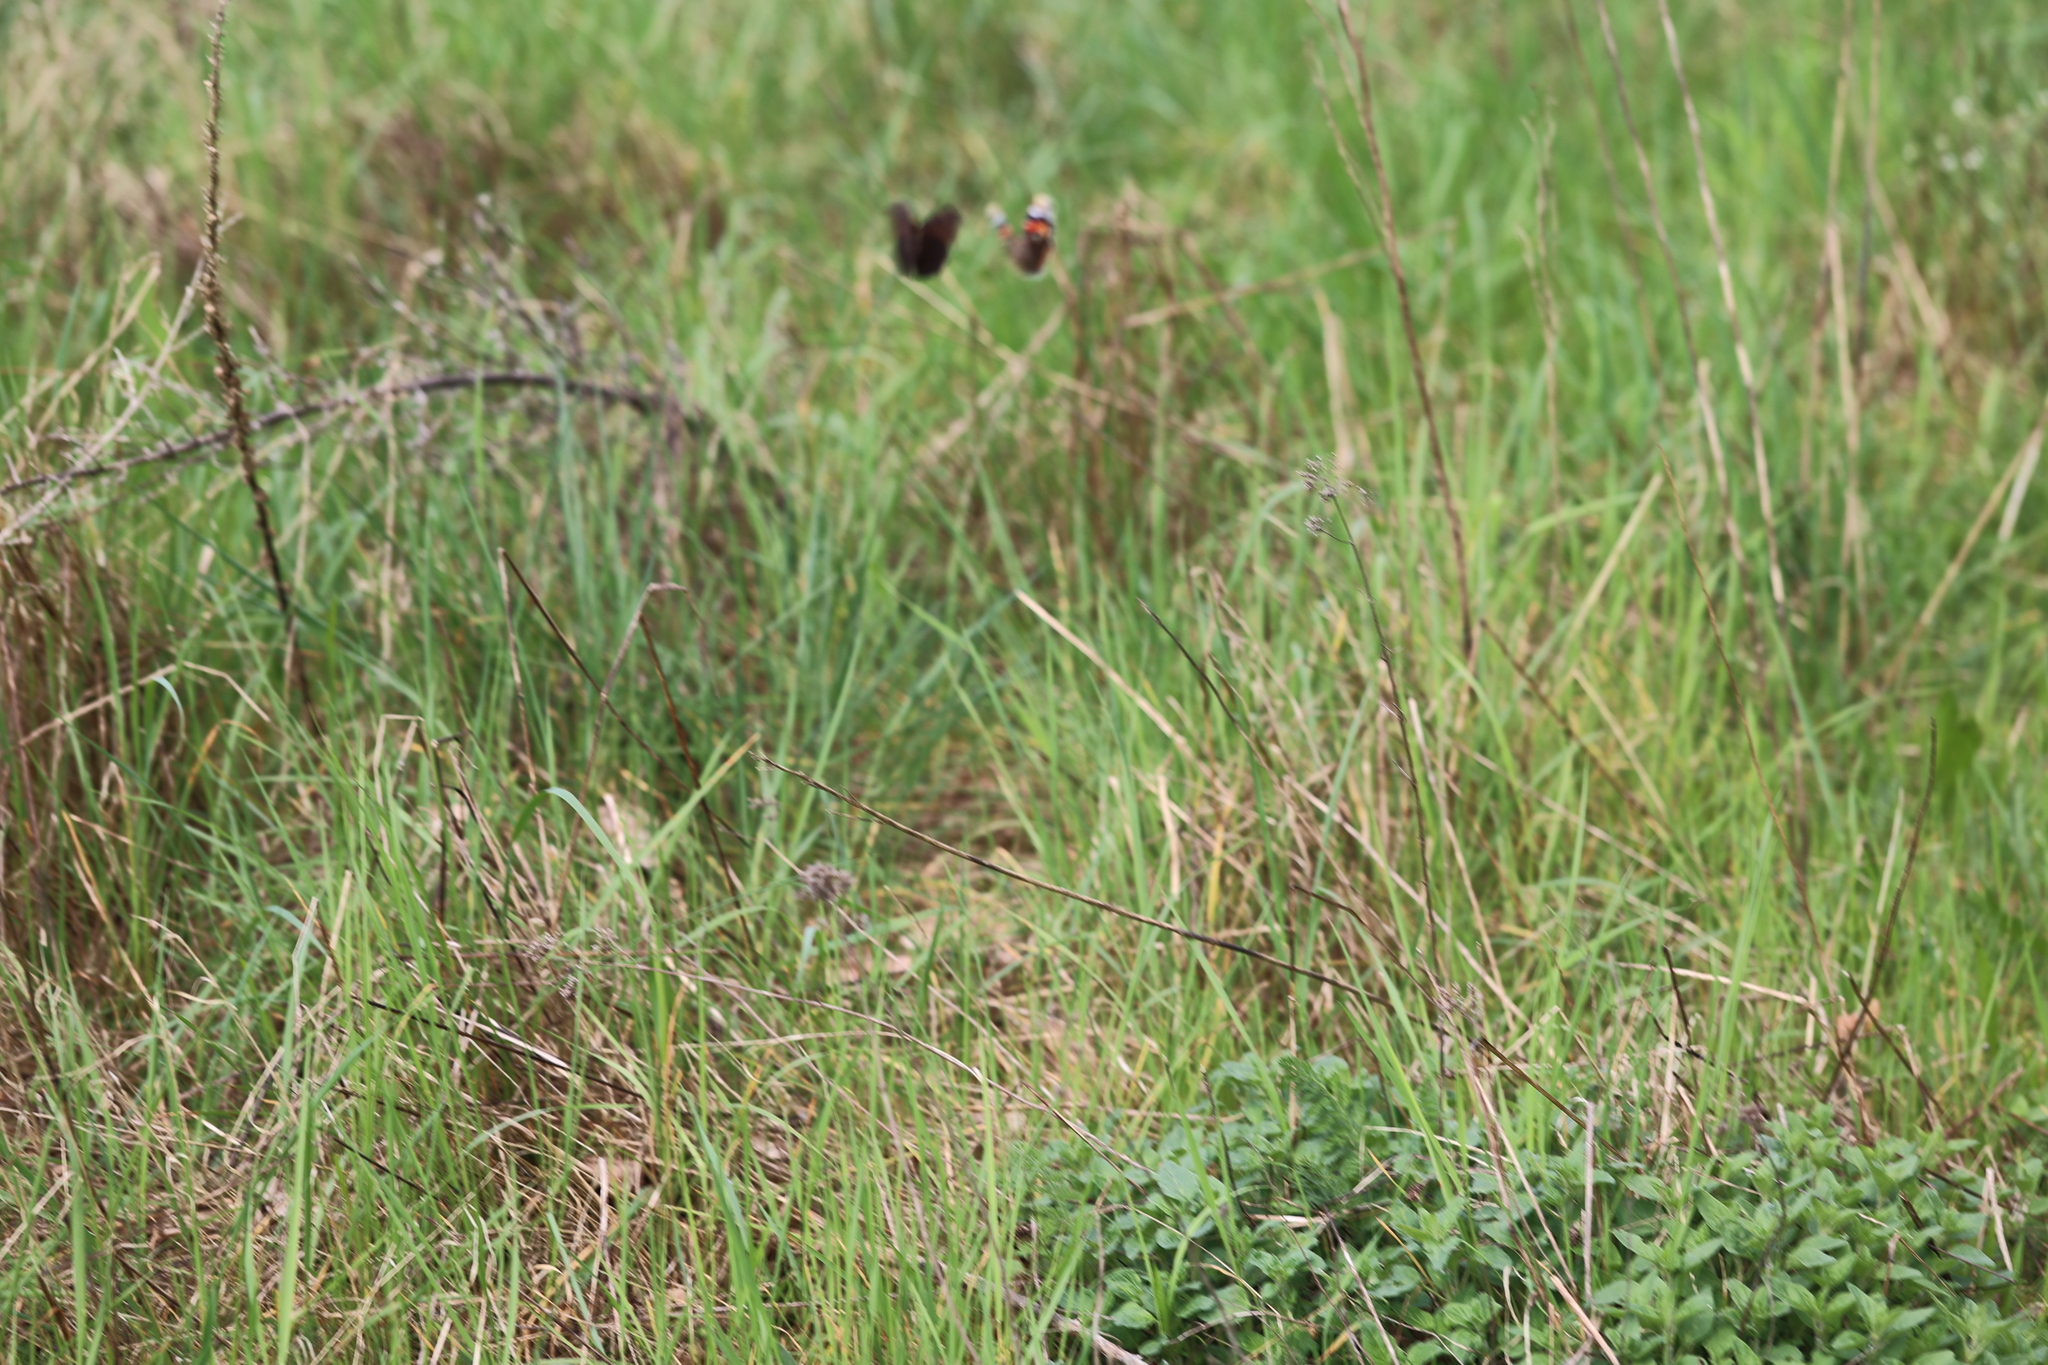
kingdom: Animalia
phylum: Arthropoda
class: Insecta
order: Lepidoptera
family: Nymphalidae
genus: Vanessa
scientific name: Vanessa atalanta
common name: Red admiral
